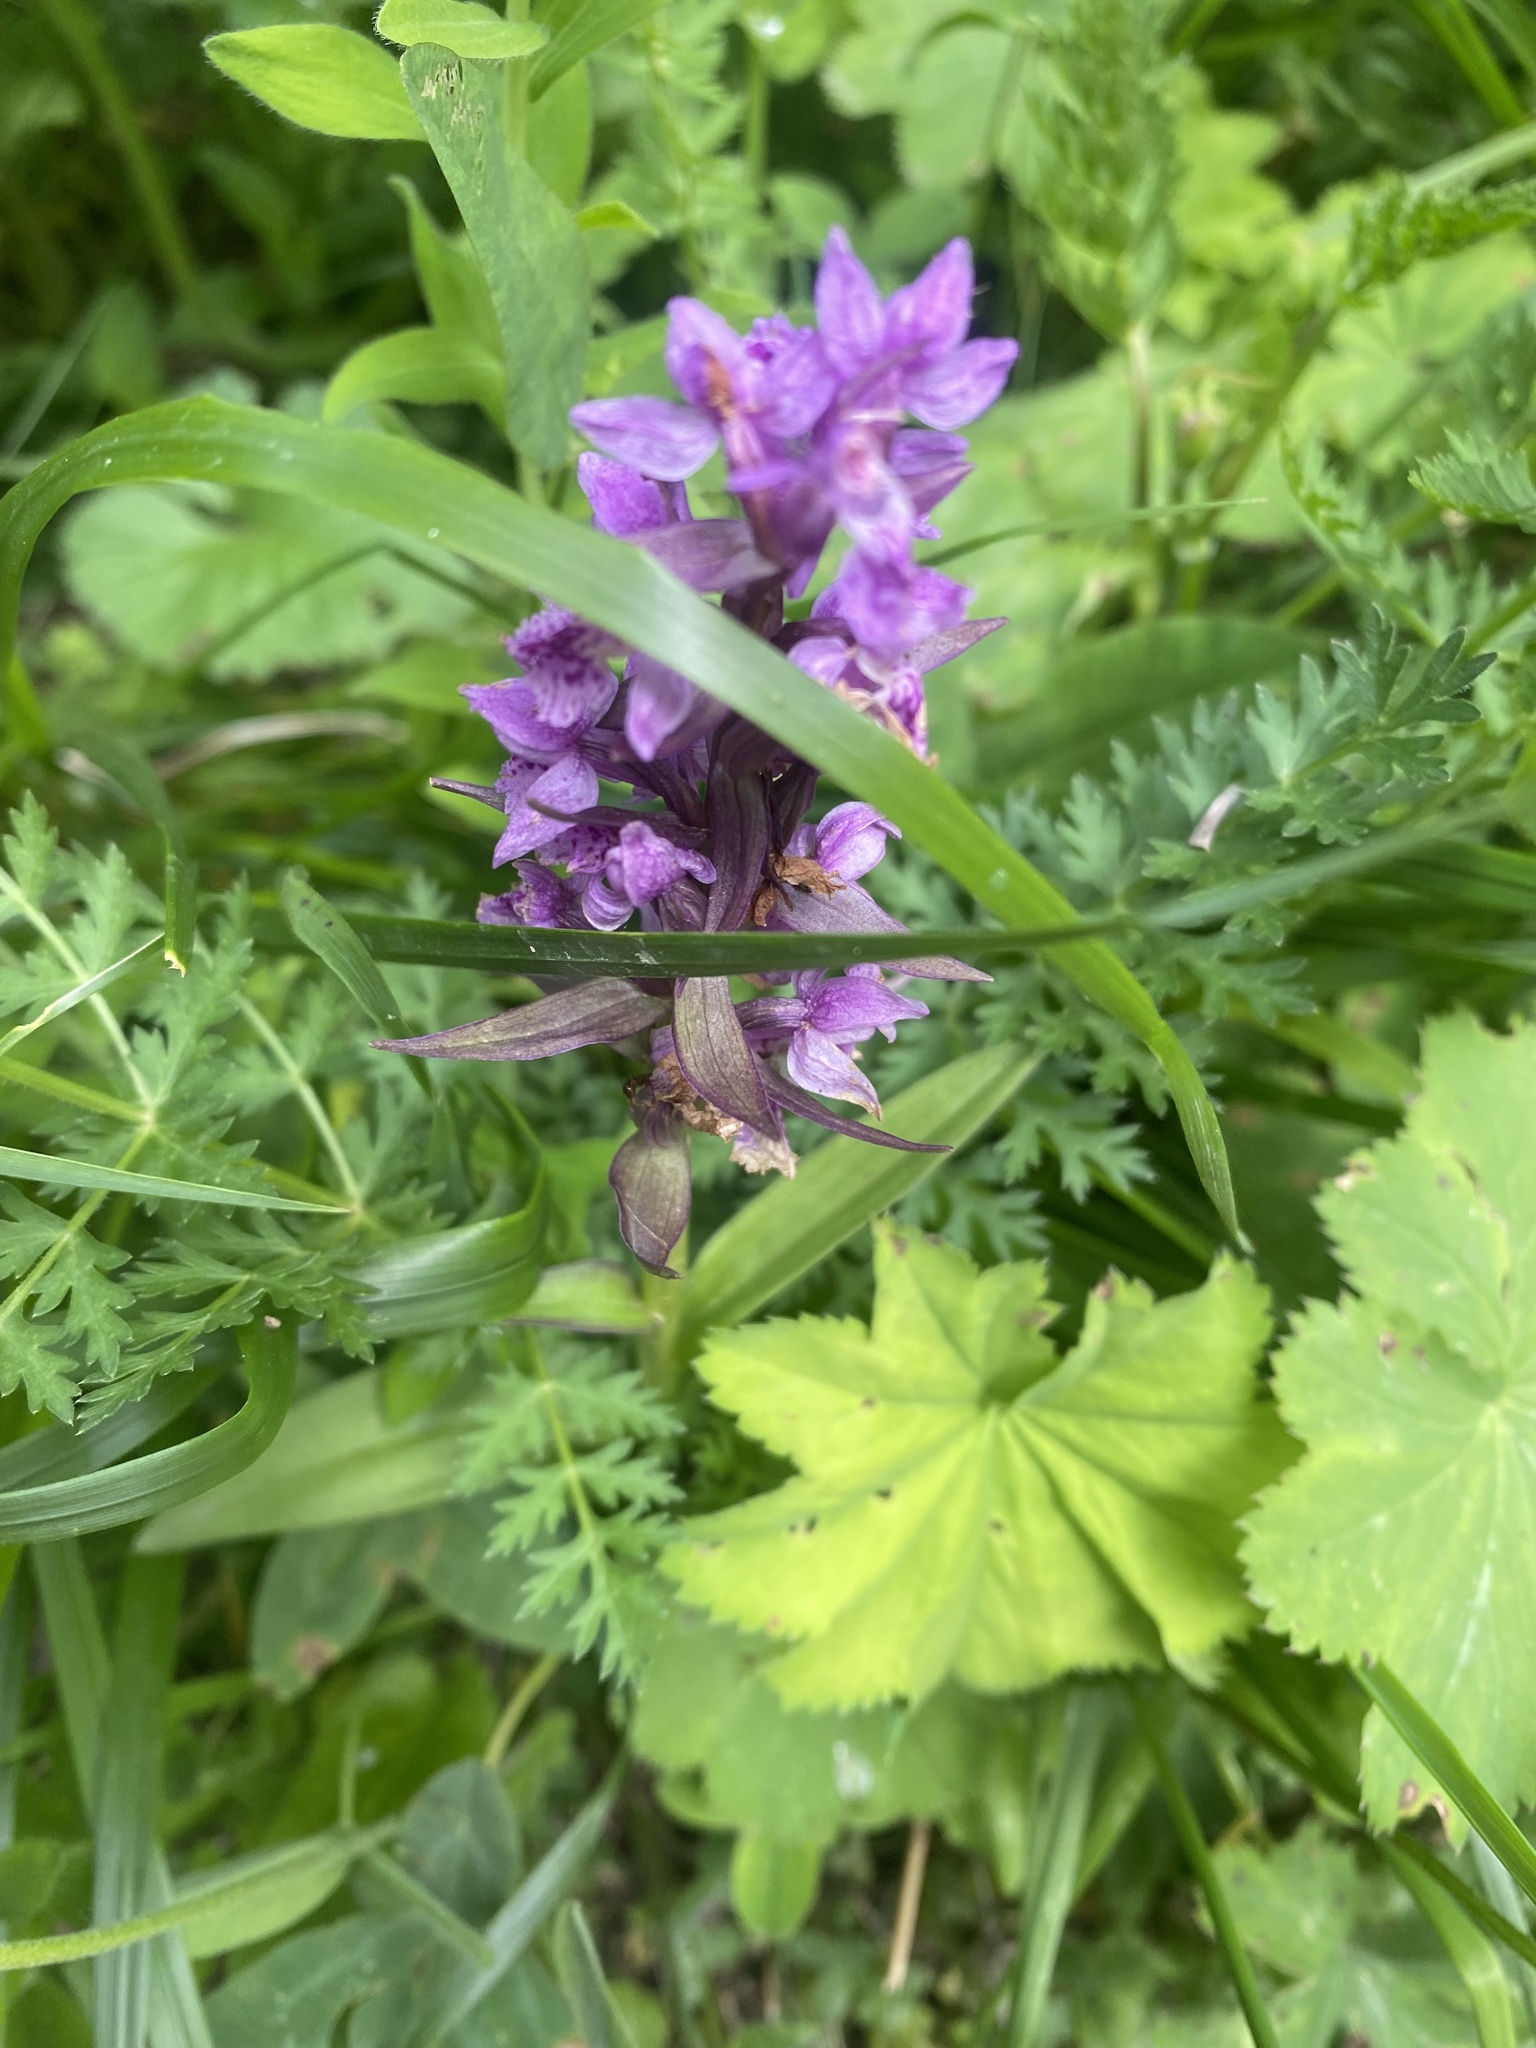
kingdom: Plantae
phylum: Tracheophyta
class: Liliopsida
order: Asparagales
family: Orchidaceae
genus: Dactylorhiza
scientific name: Dactylorhiza euxina
